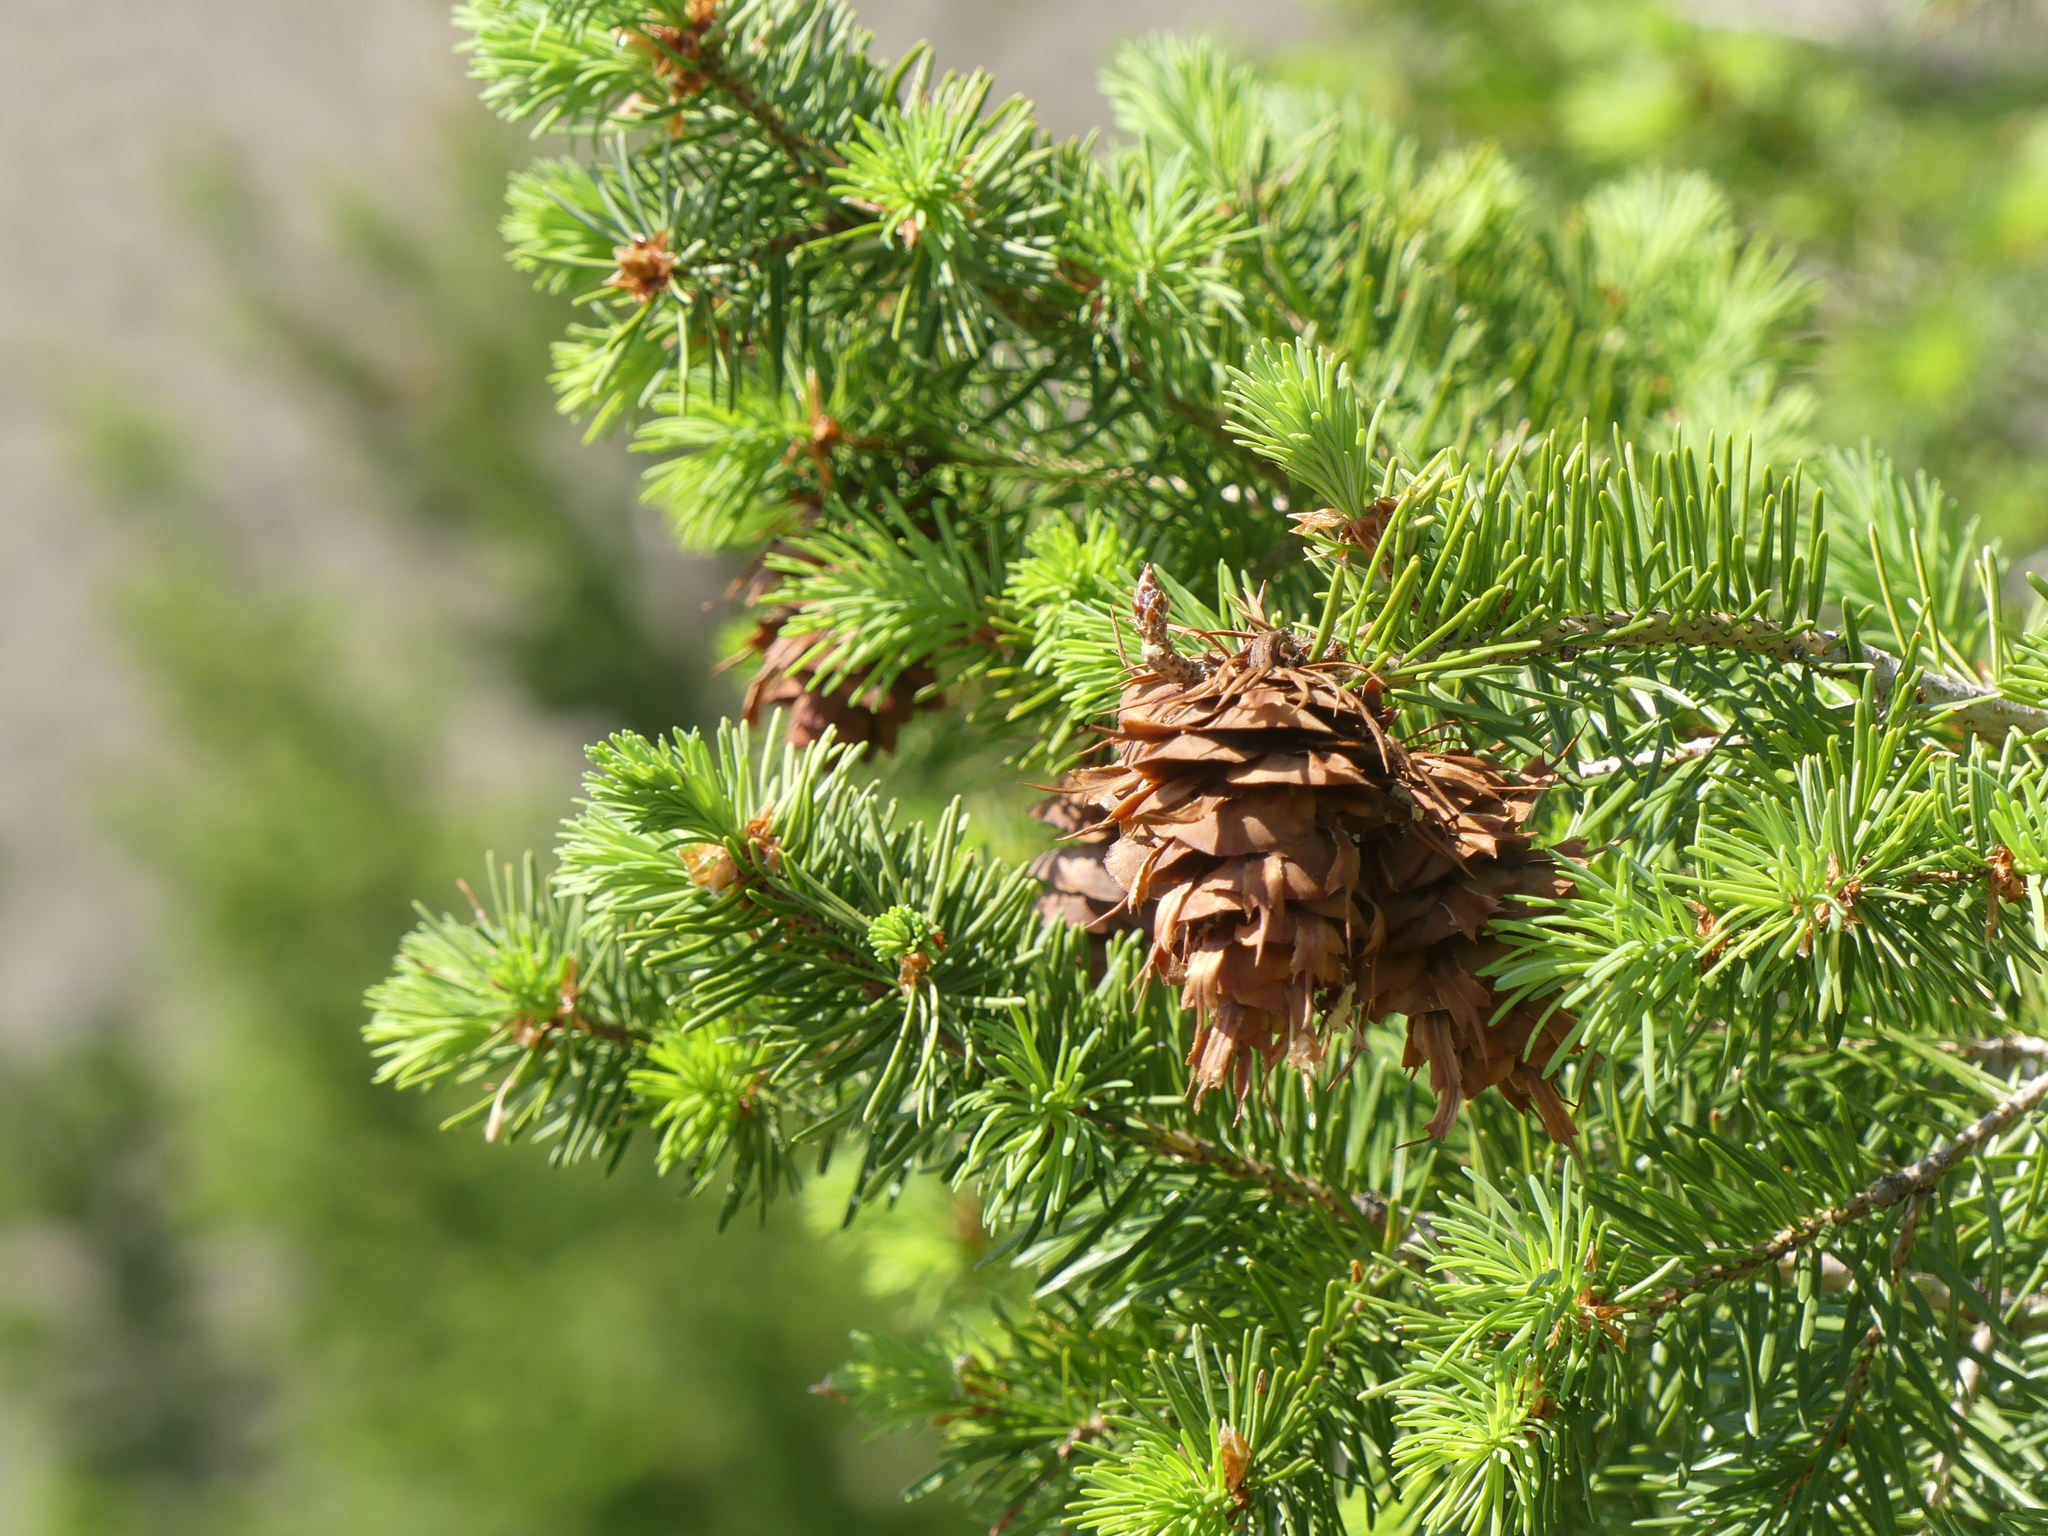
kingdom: Plantae
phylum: Tracheophyta
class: Pinopsida
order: Pinales
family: Pinaceae
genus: Pseudotsuga
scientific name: Pseudotsuga menziesii
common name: Douglas fir
